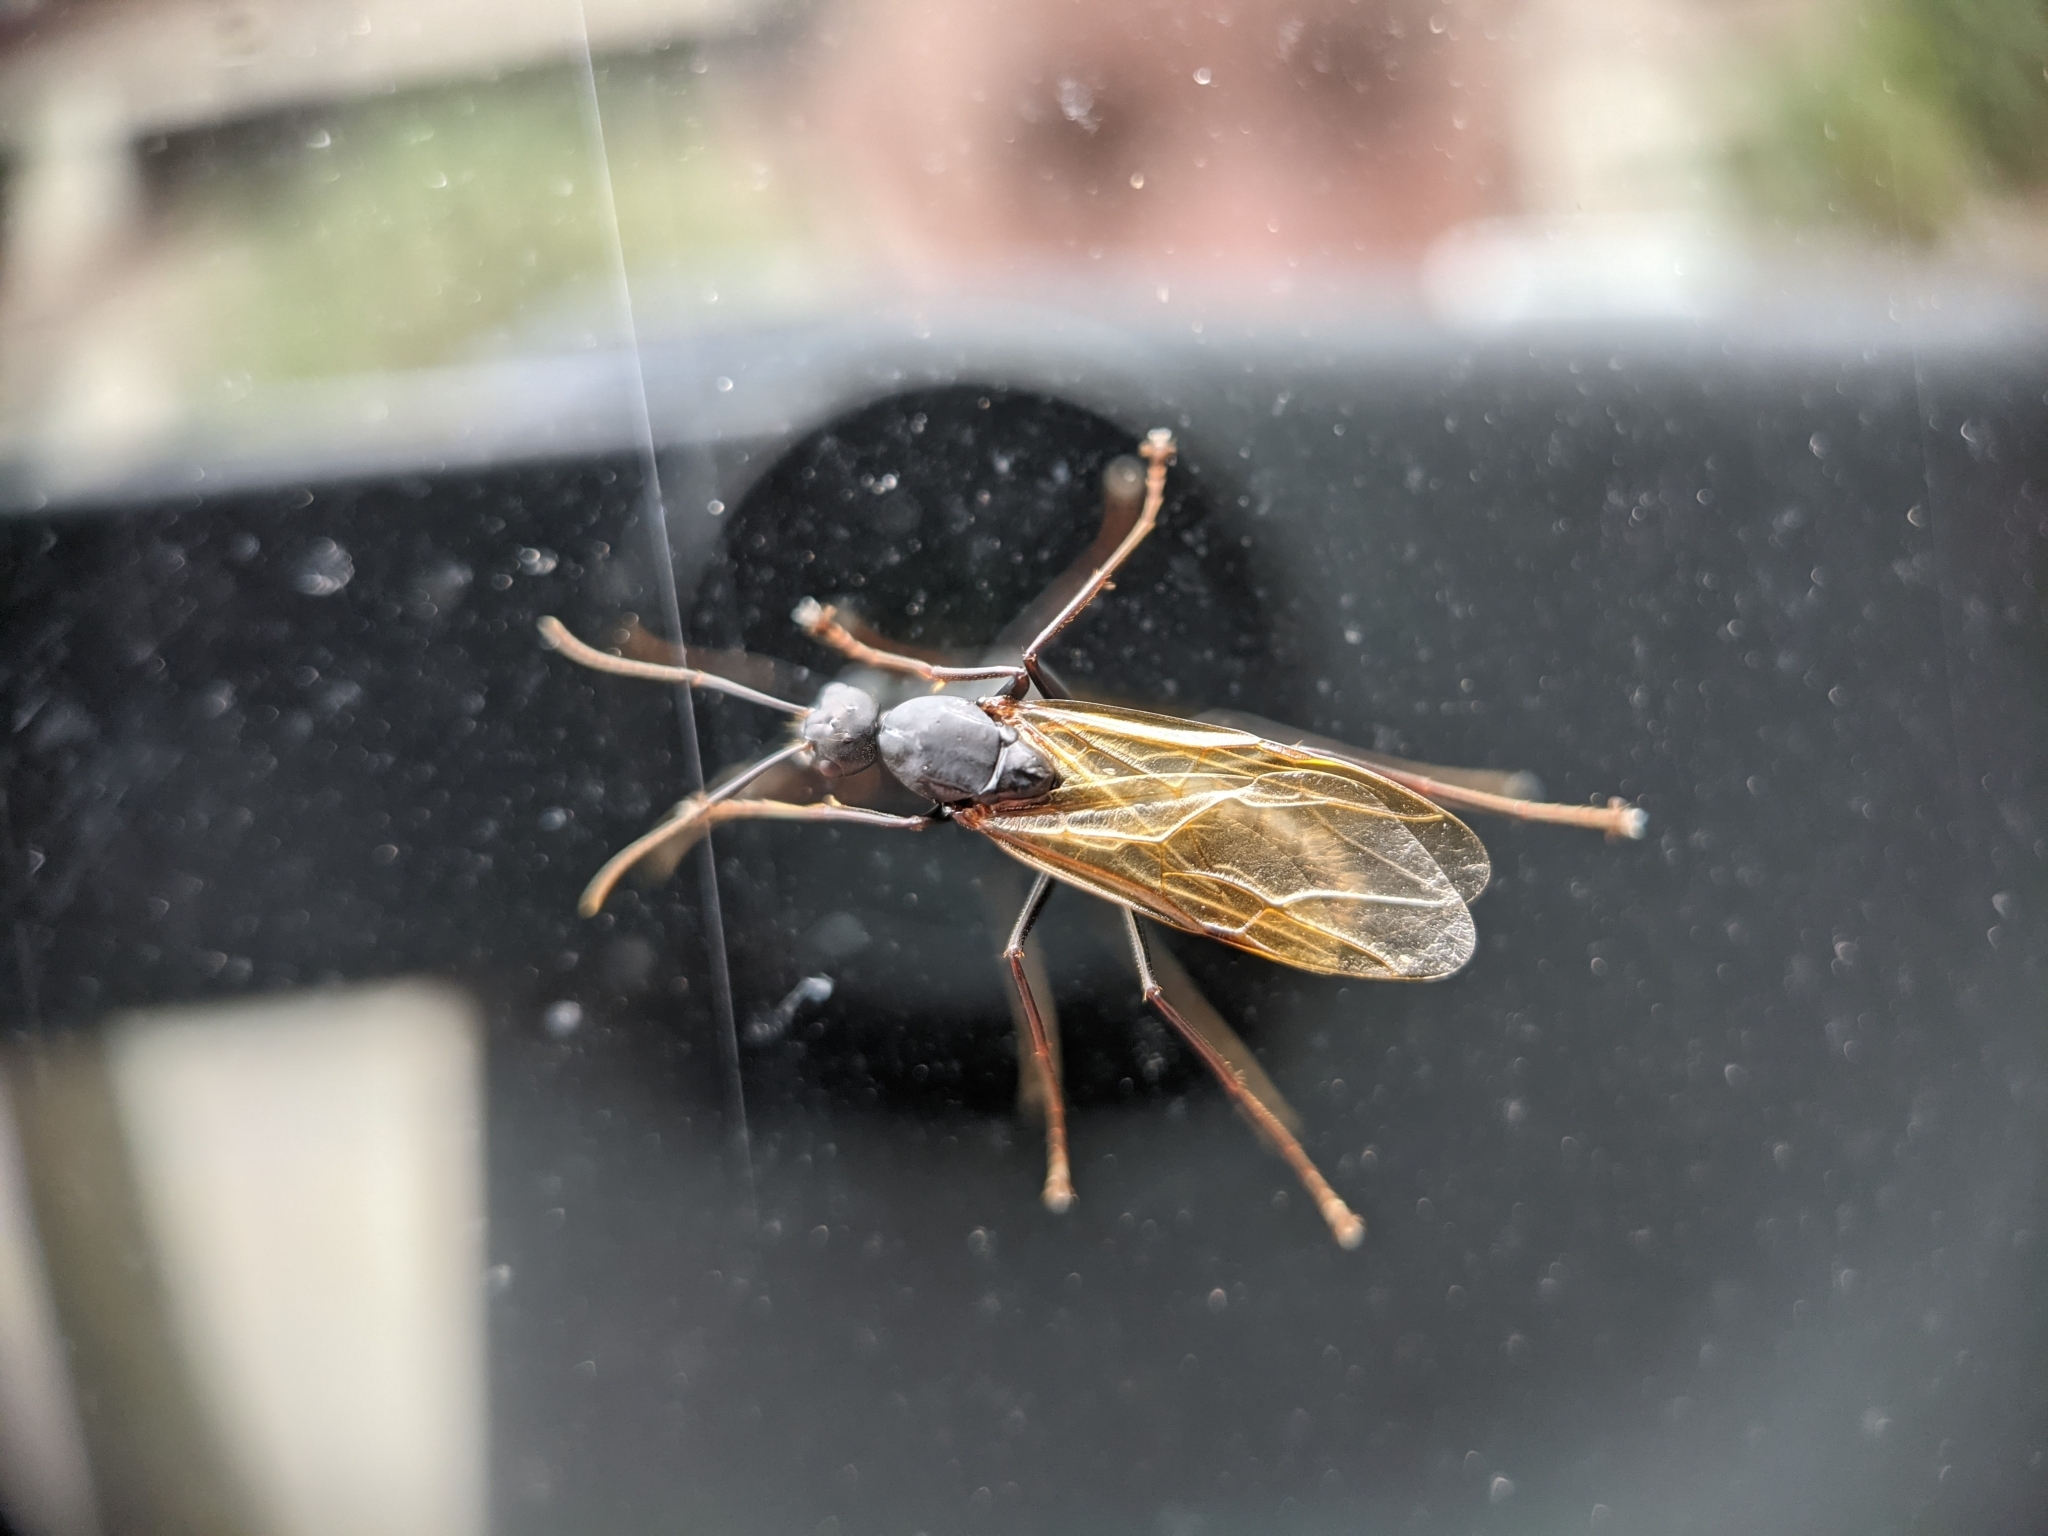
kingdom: Animalia
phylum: Arthropoda
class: Insecta
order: Hymenoptera
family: Formicidae
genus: Camponotus
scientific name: Camponotus pennsylvanicus
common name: Black carpenter ant
